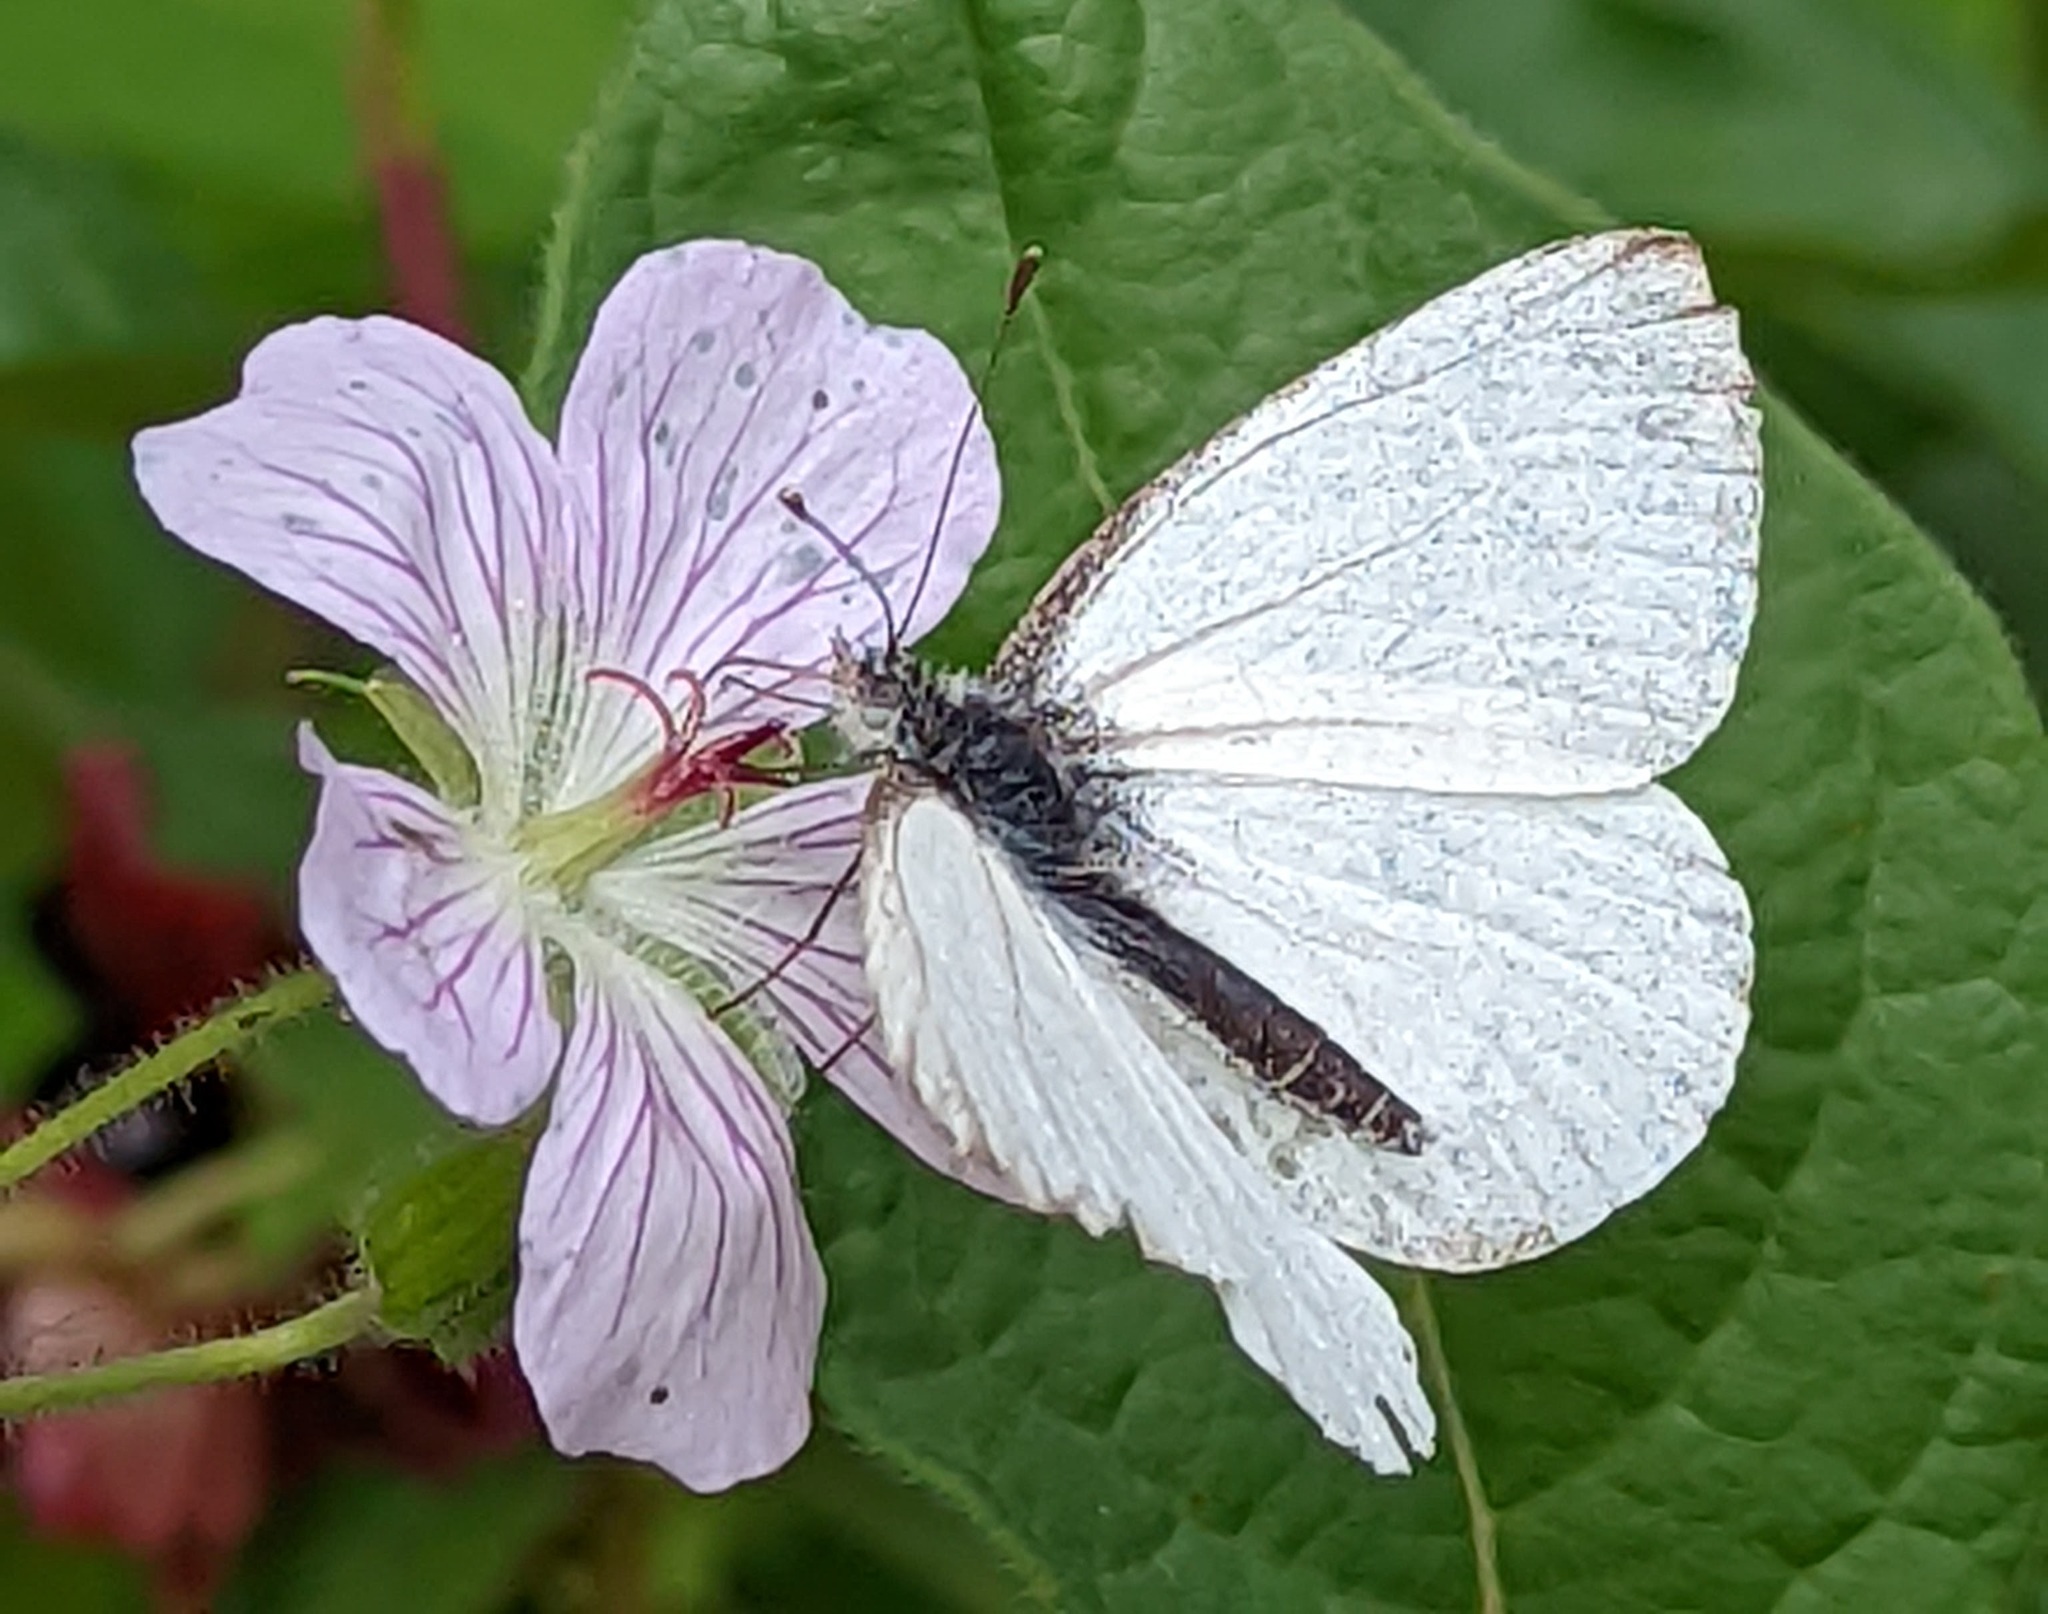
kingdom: Animalia
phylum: Arthropoda
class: Insecta
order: Lepidoptera
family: Pieridae
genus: Pieris
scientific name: Pieris marginalis
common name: Margined white
